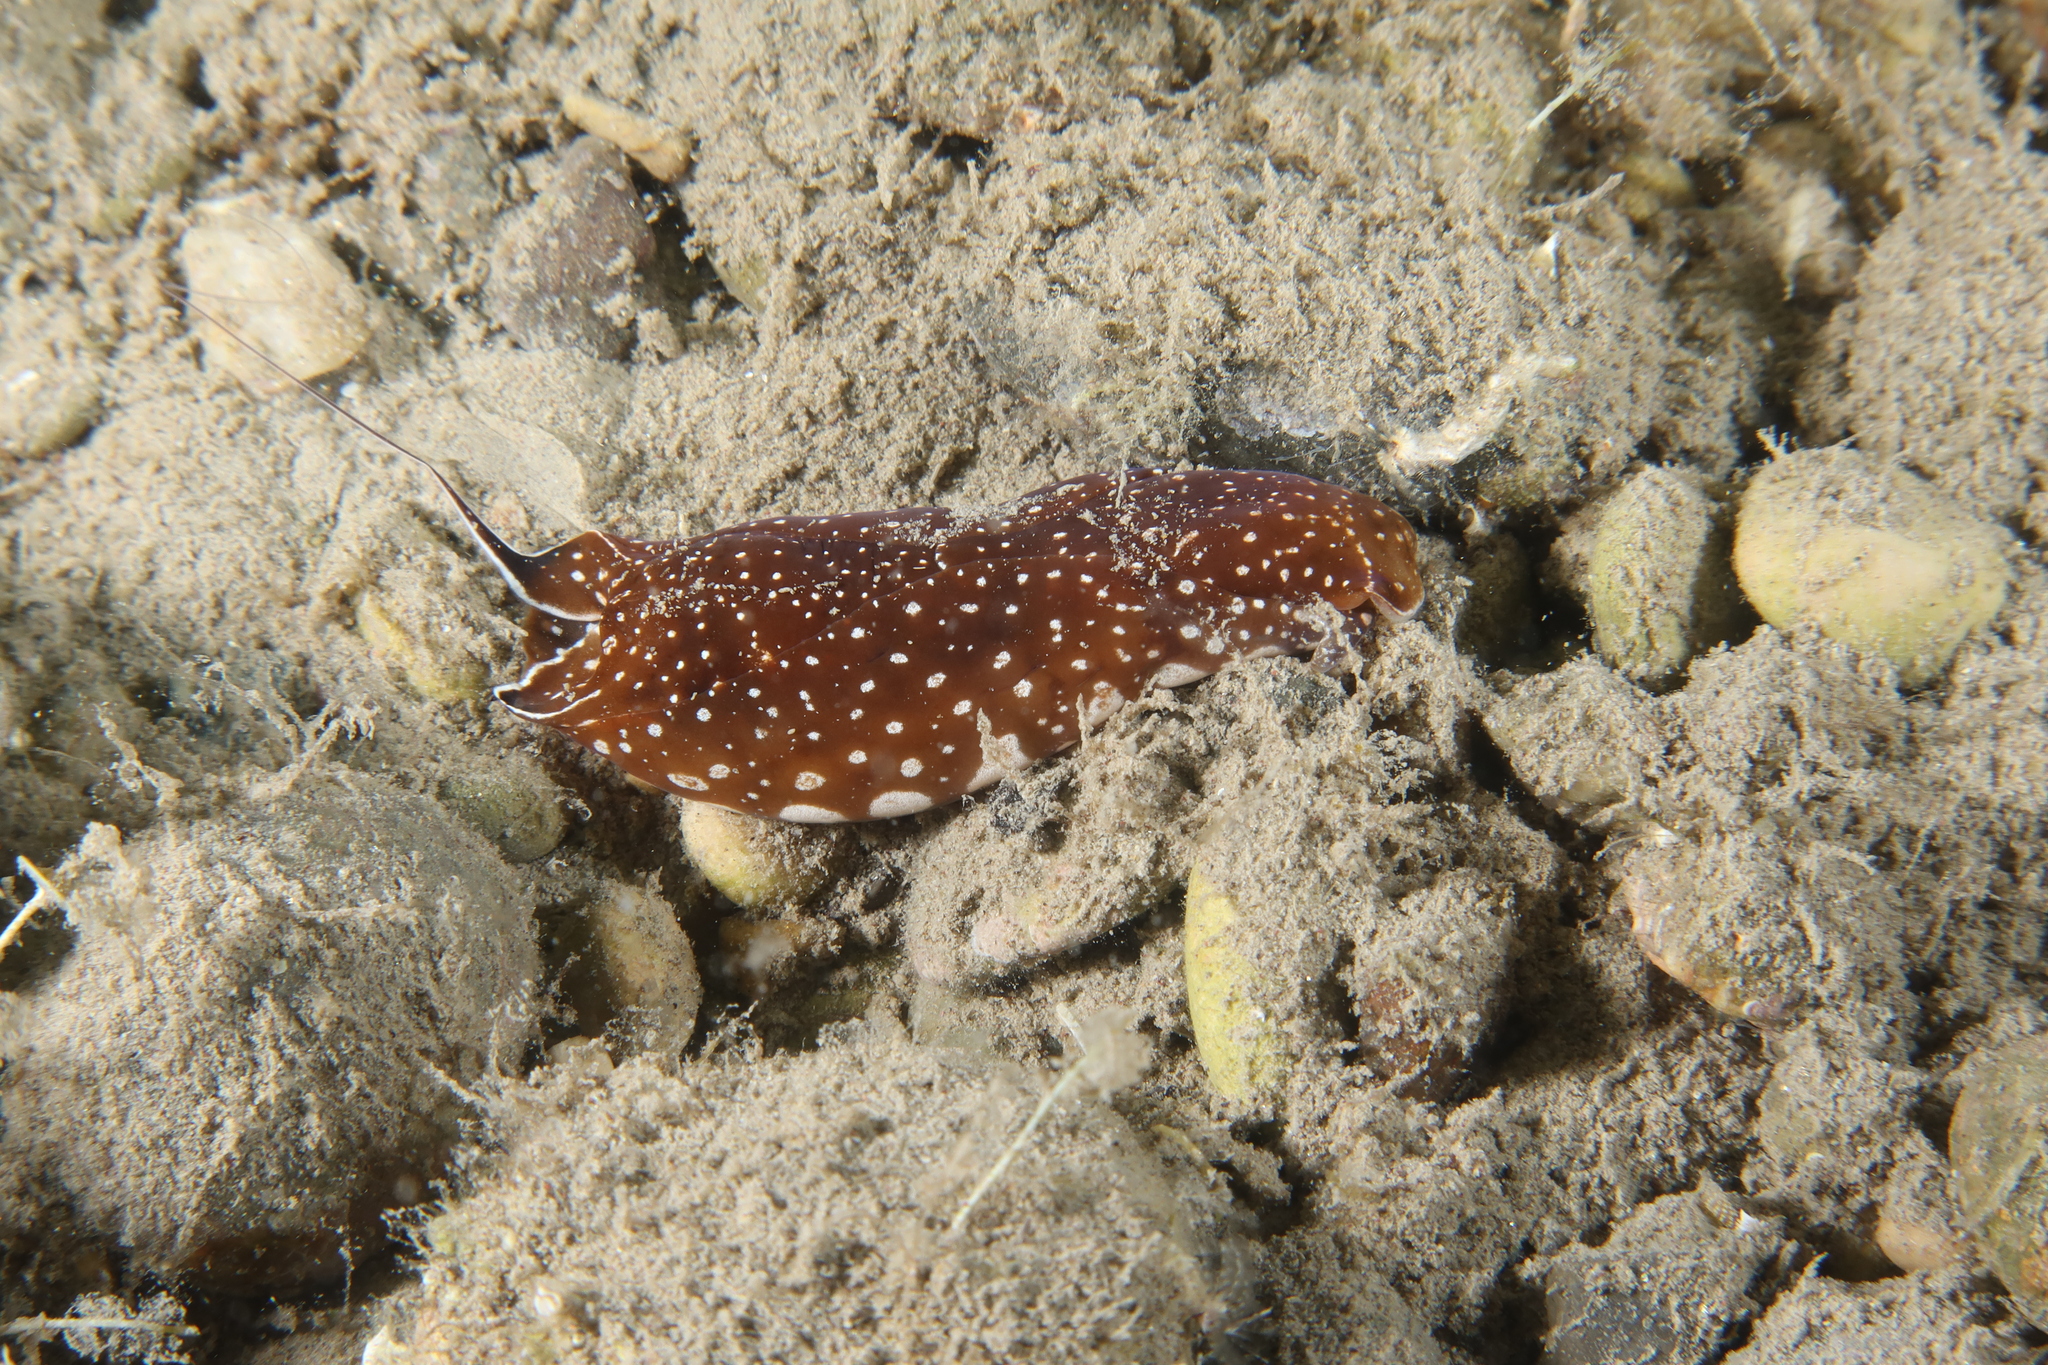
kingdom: Animalia
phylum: Mollusca
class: Gastropoda
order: Cephalaspidea
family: Aglajidae
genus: Aglaja
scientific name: Aglaja tricolorata
